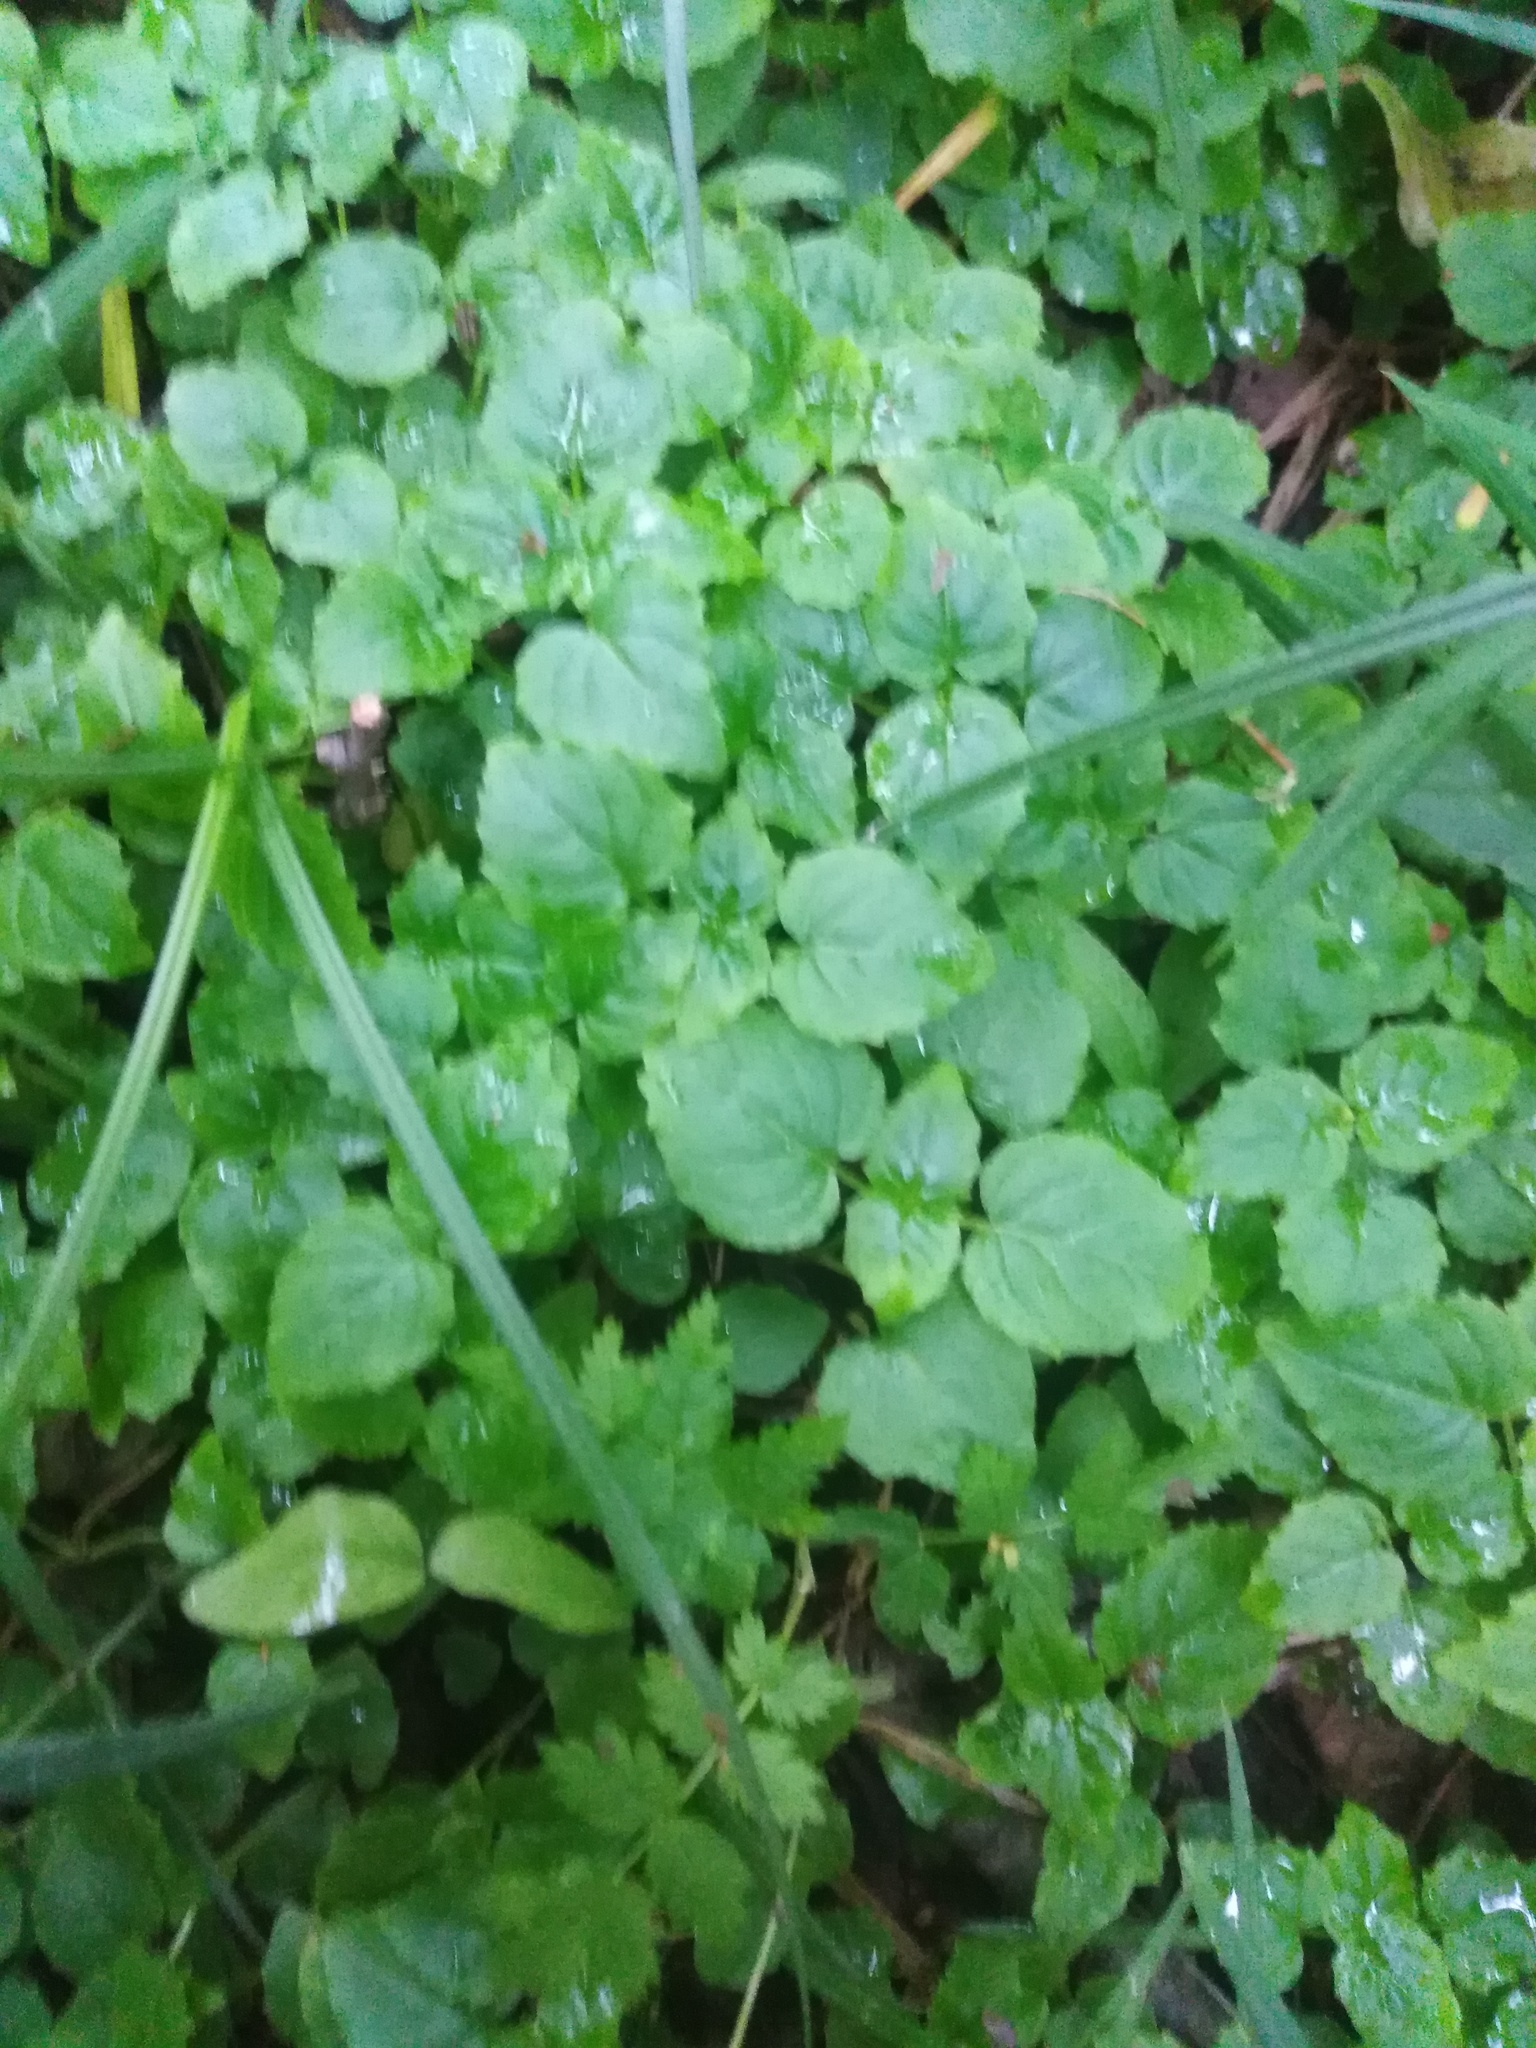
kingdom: Plantae
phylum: Tracheophyta
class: Magnoliopsida
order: Myrtales
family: Onagraceae
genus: Circaea
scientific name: Circaea alpina
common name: Alpine enchanter's-nightshade
